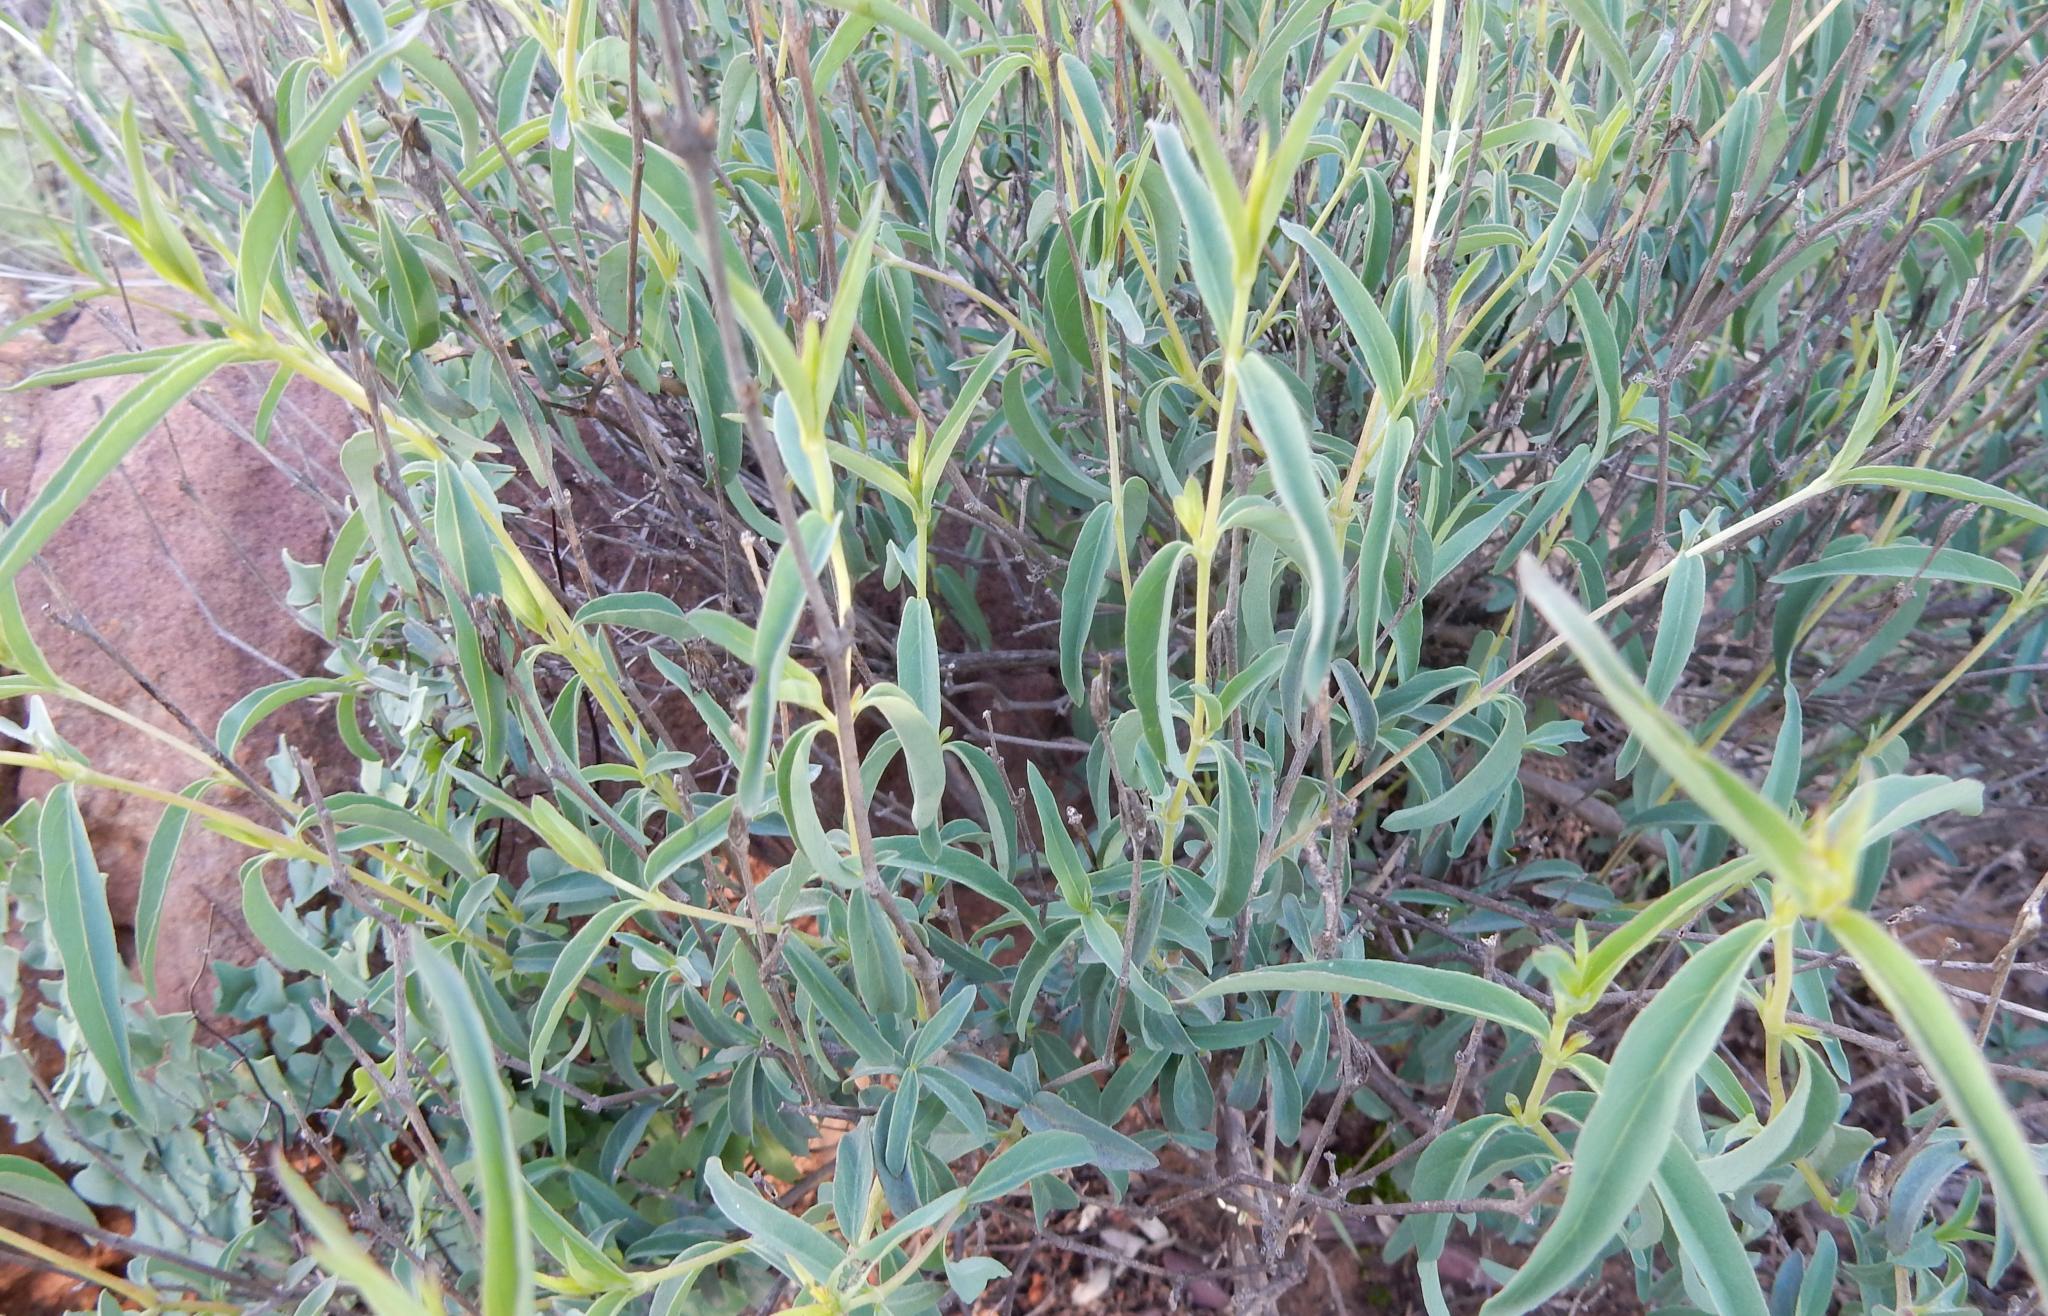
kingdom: Plantae
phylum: Tracheophyta
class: Magnoliopsida
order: Lamiales
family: Acanthaceae
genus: Barleria
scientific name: Barleria pretoriensis
